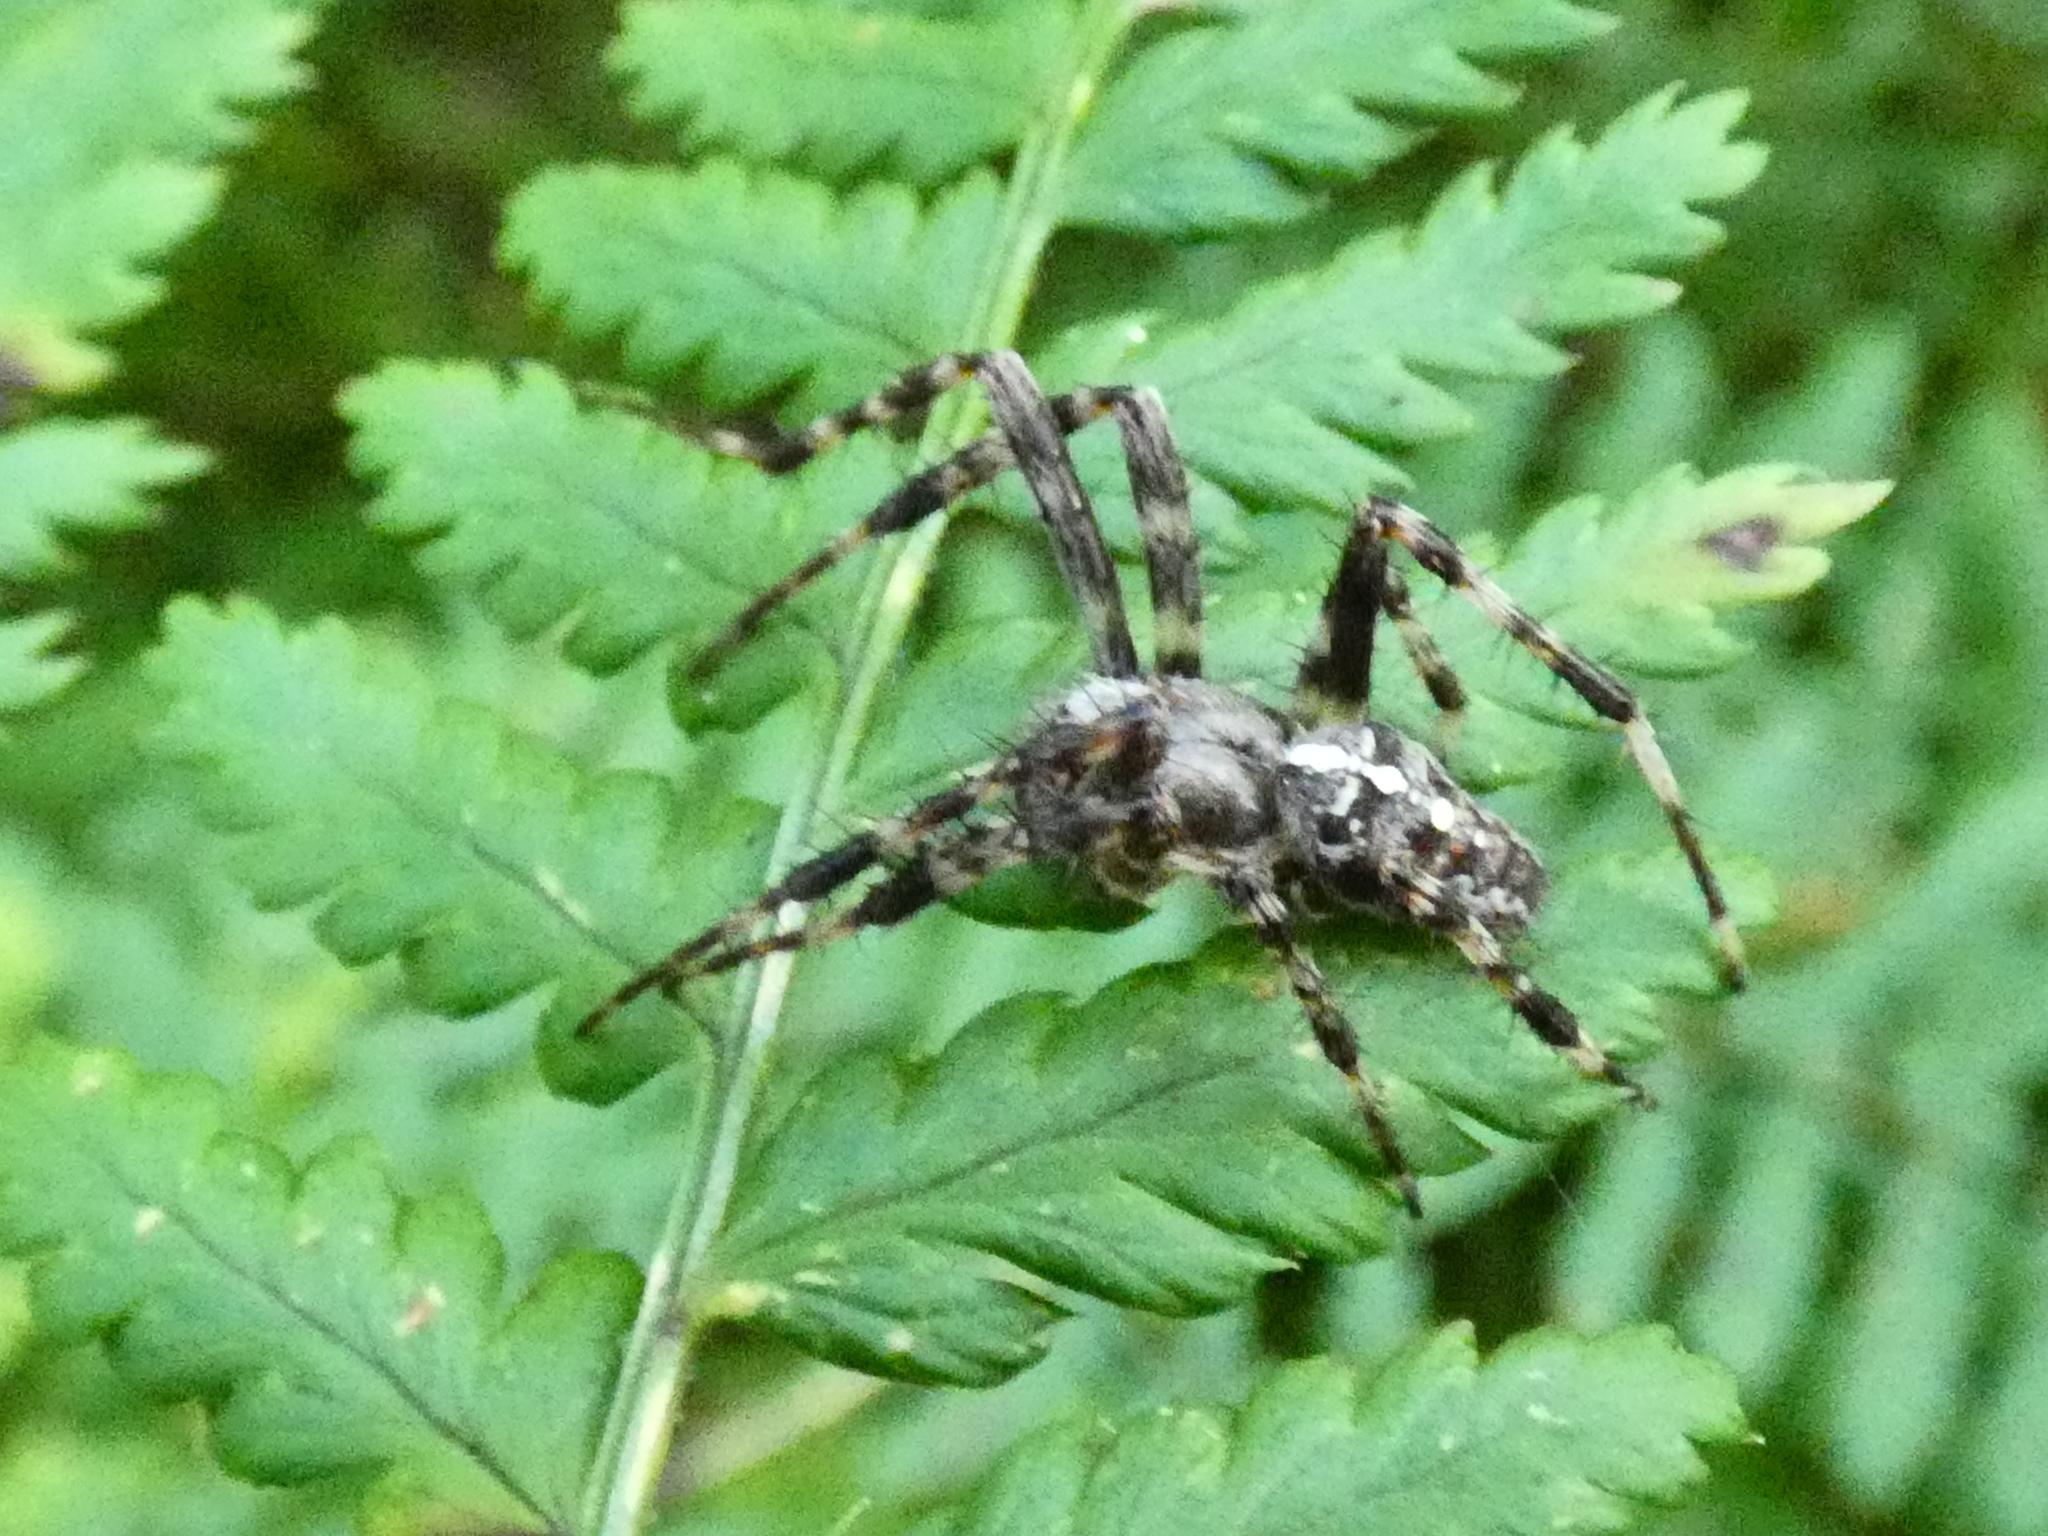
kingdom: Animalia
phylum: Arthropoda
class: Arachnida
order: Araneae
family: Araneidae
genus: Araneus
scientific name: Araneus diadematus
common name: Cross orbweaver
